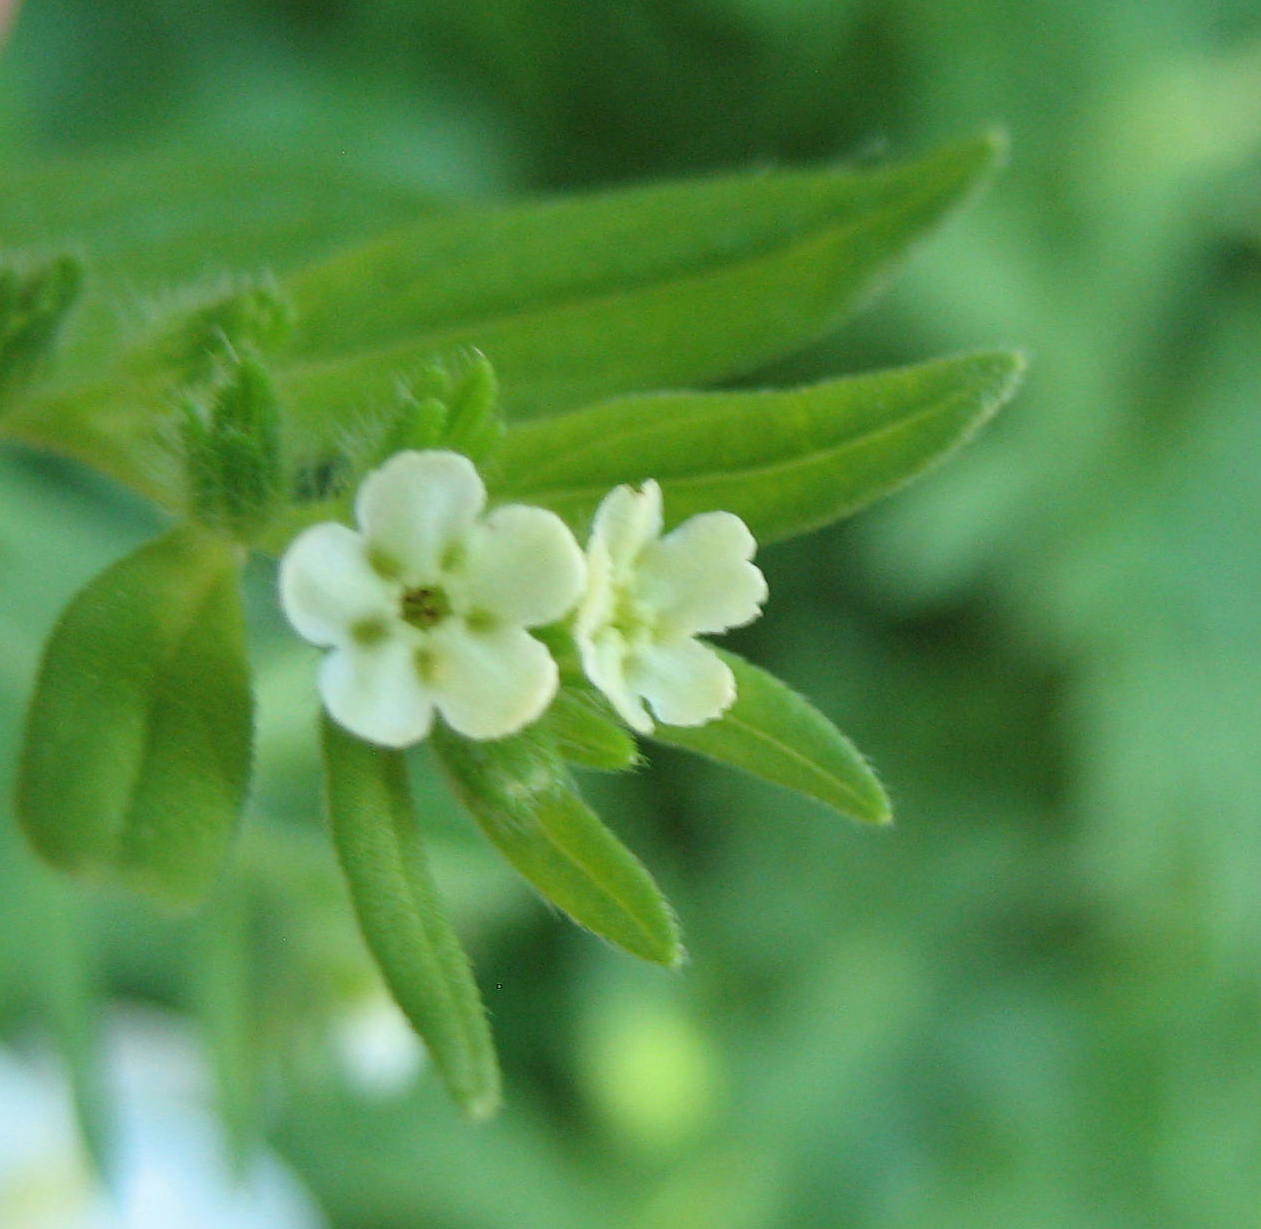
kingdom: Plantae
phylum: Tracheophyta
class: Magnoliopsida
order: Boraginales
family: Boraginaceae
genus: Lithospermum
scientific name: Lithospermum officinale
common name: Common gromwell
